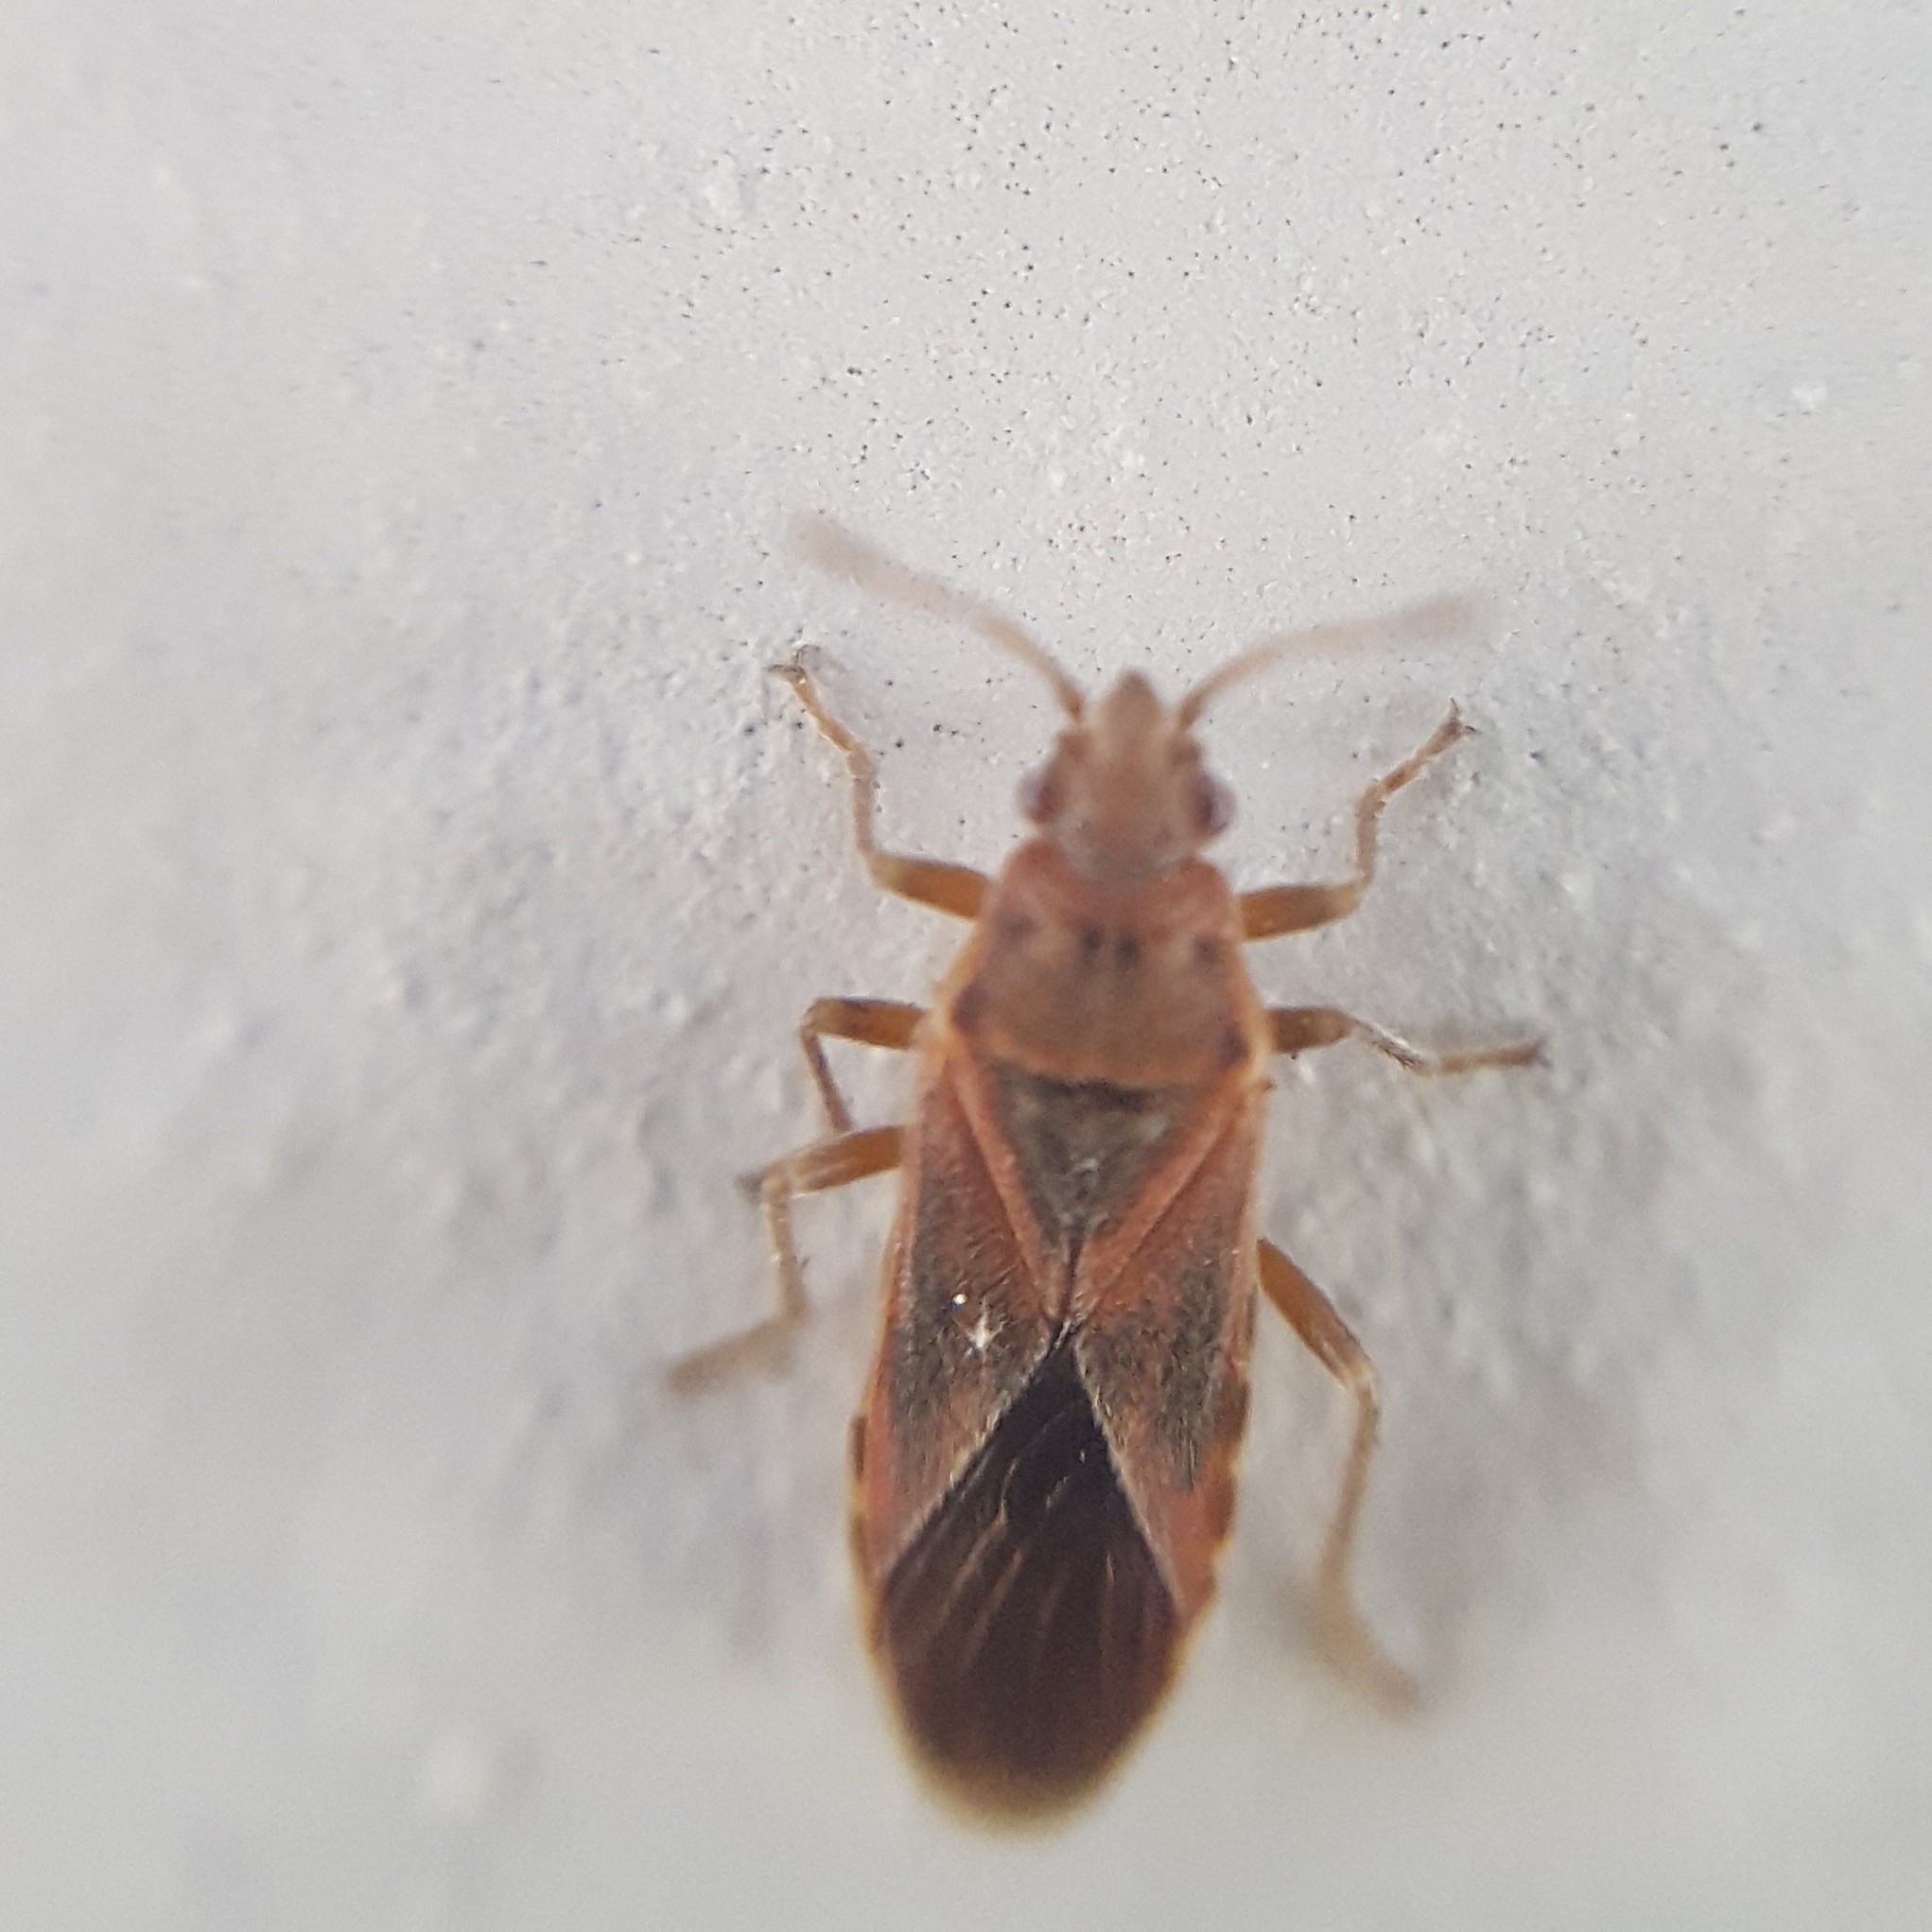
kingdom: Animalia
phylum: Arthropoda
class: Insecta
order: Hemiptera
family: Lygaeidae
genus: Arocatus
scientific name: Arocatus longiceps
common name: Plane tree bug
